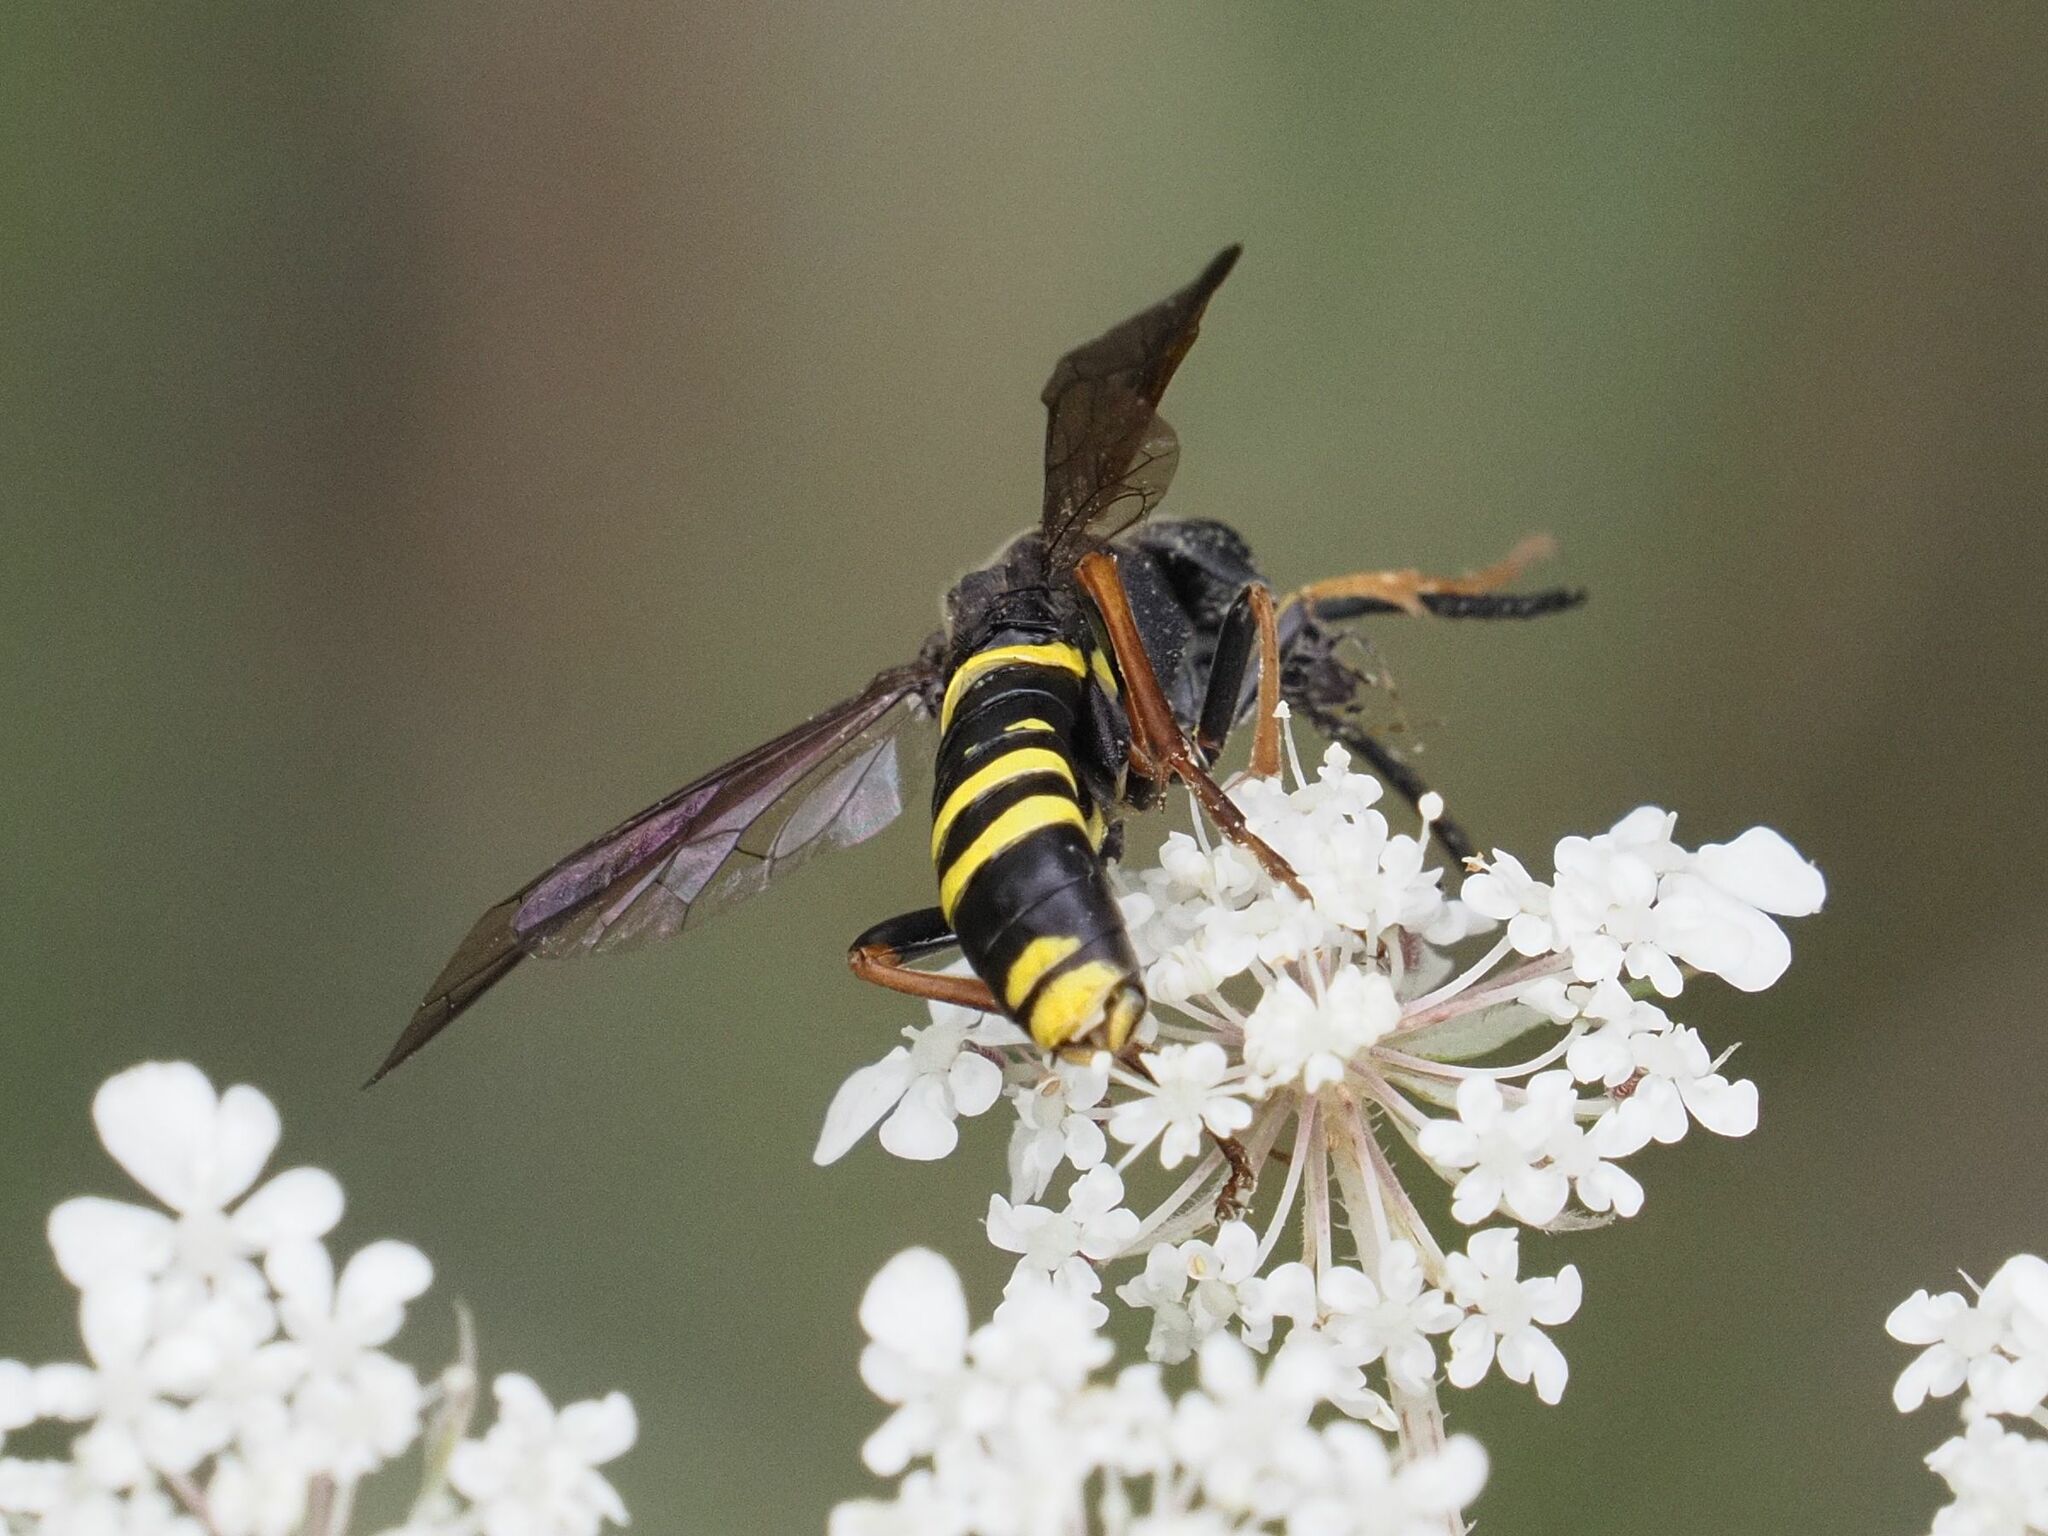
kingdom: Animalia
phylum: Arthropoda
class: Insecta
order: Hymenoptera
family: Tenthredinidae
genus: Tenthredo
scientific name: Tenthredo vespa
